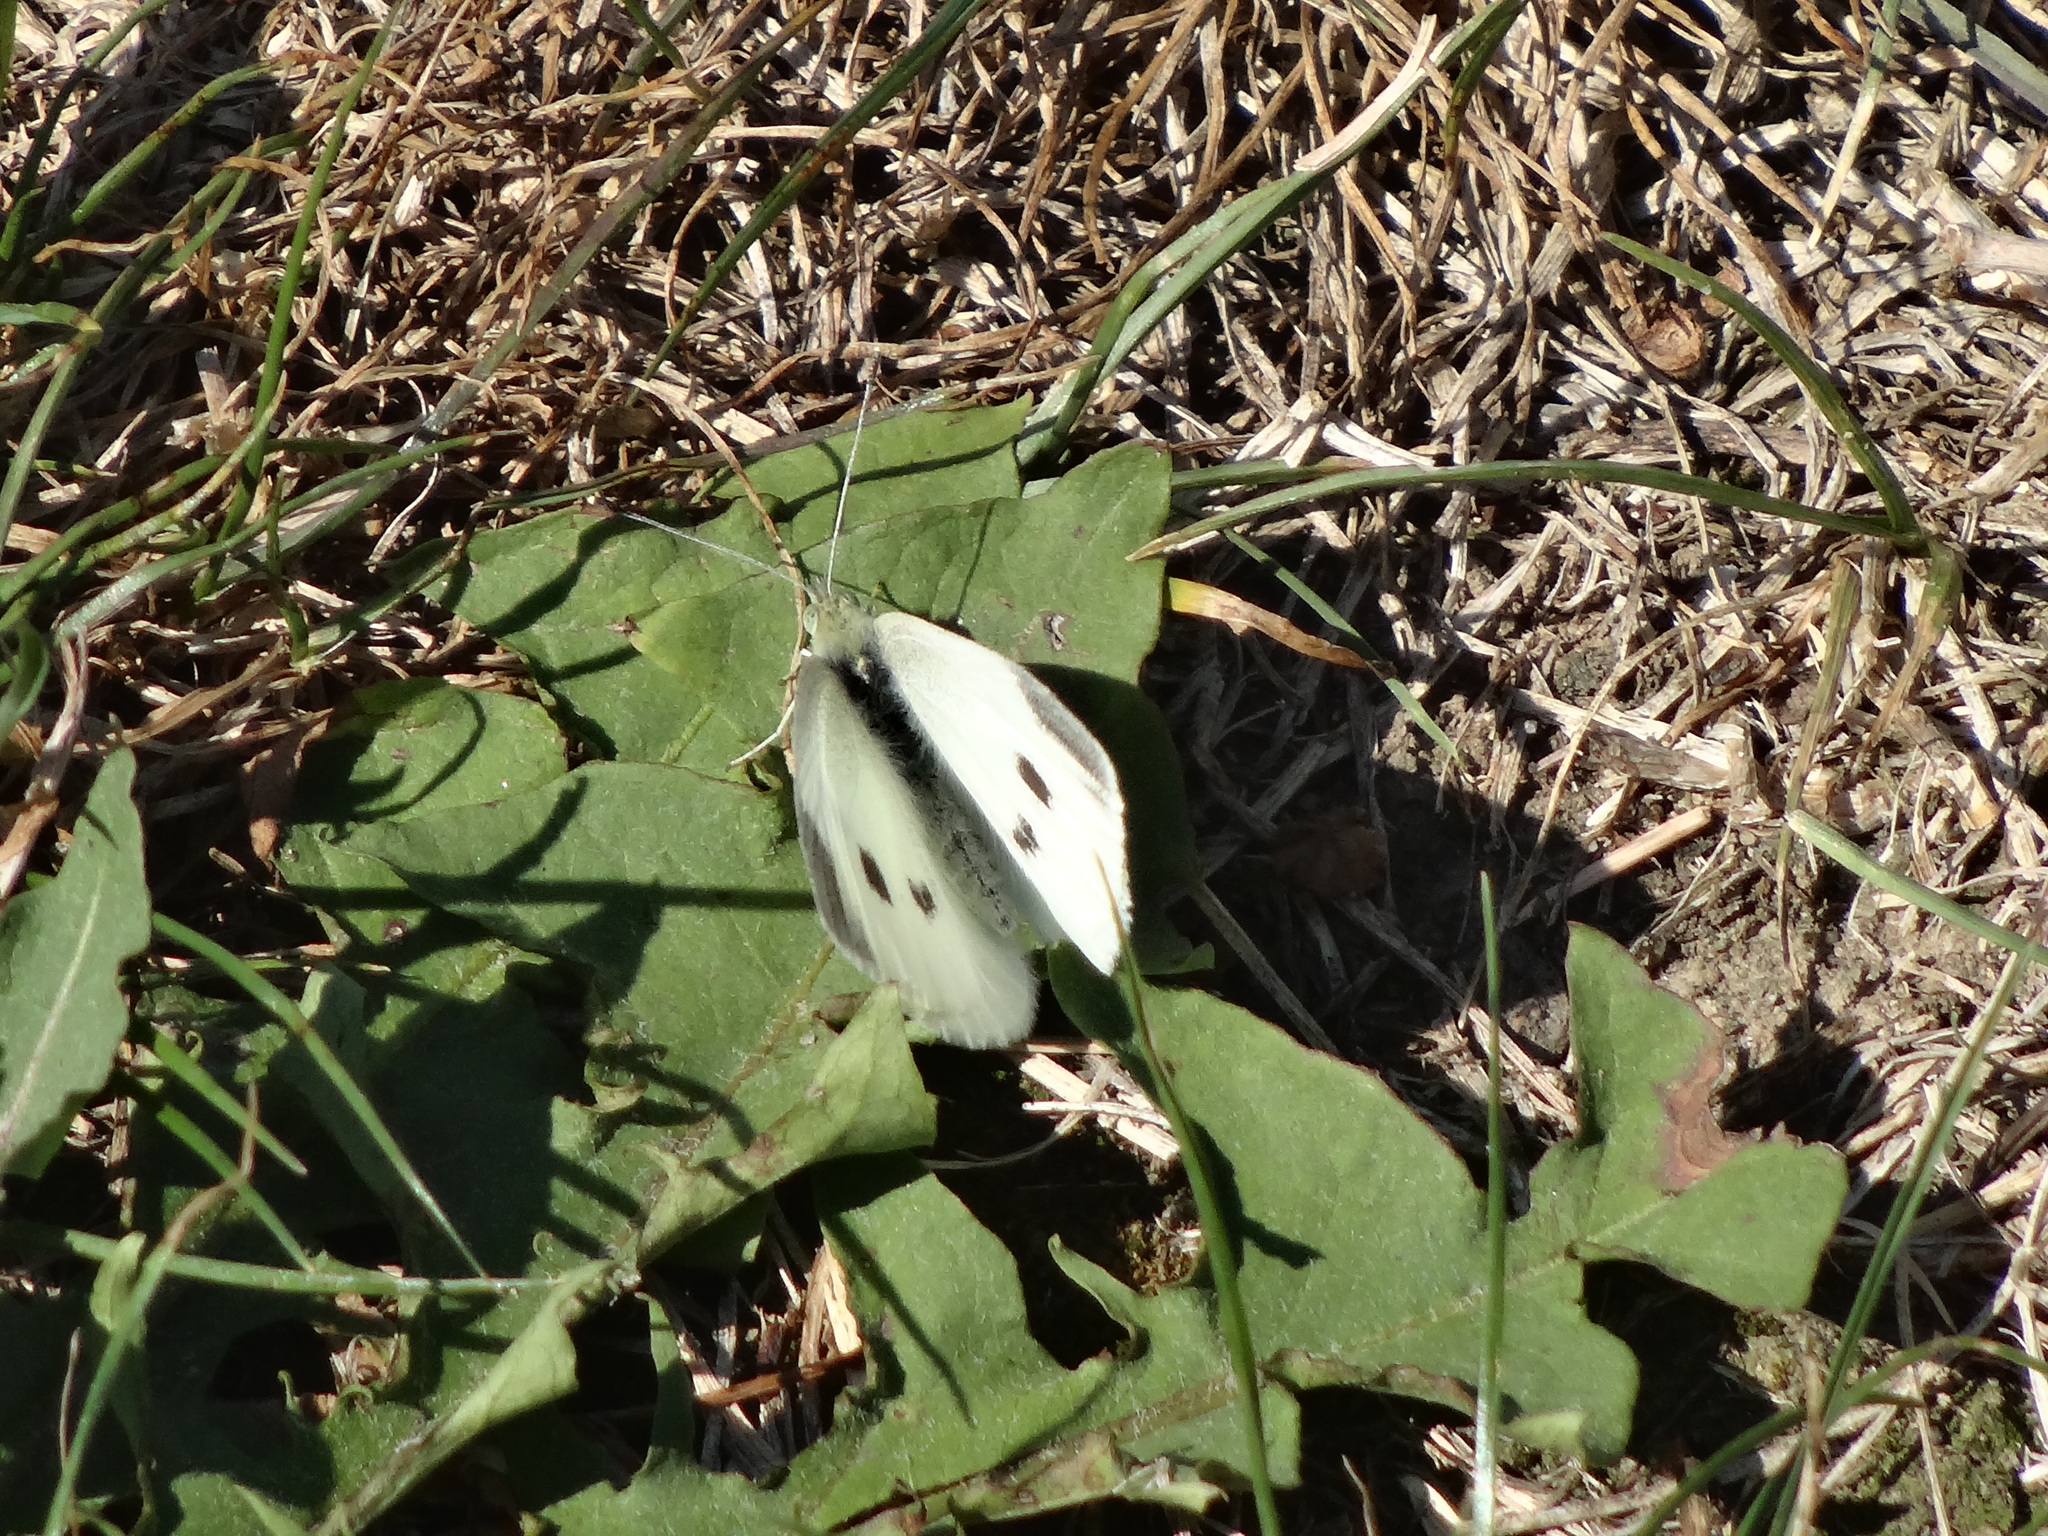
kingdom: Animalia
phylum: Arthropoda
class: Insecta
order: Lepidoptera
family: Pieridae
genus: Pieris
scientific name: Pieris rapae
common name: Small white
